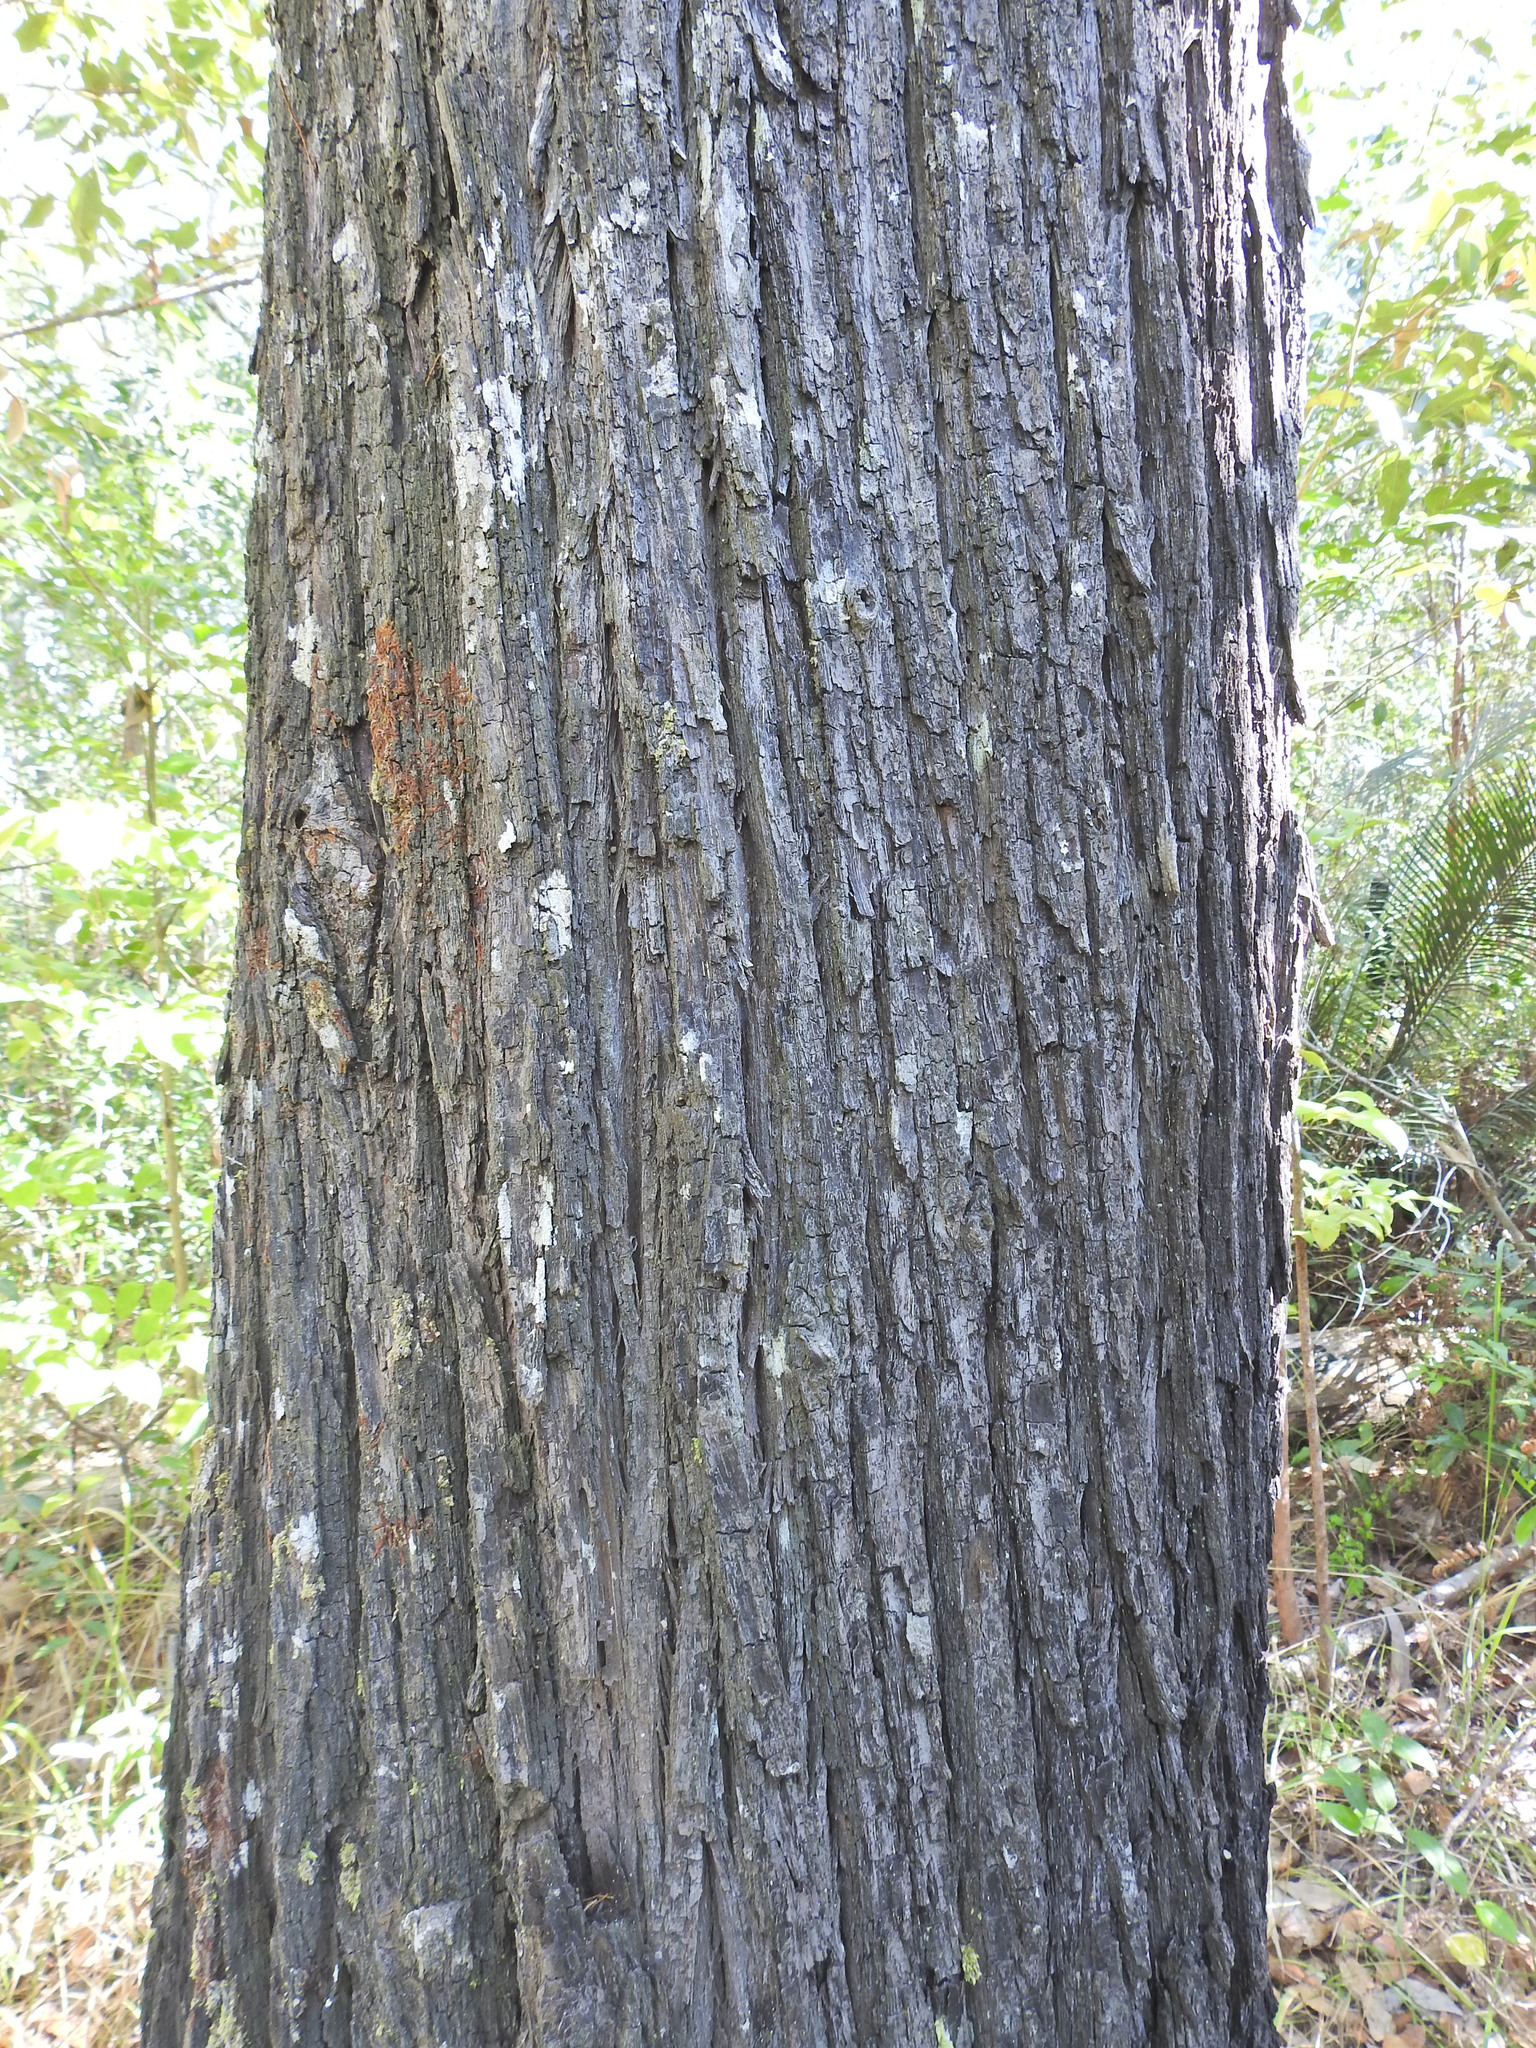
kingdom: Plantae
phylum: Tracheophyta
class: Pinopsida
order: Pinales
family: Cupressaceae
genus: Callitris
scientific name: Callitris columellaris
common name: White cypress-pine
